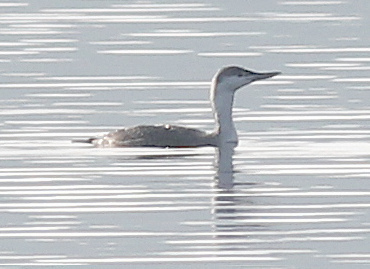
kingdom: Animalia
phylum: Chordata
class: Aves
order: Gaviiformes
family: Gaviidae
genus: Gavia
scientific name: Gavia stellata
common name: Red-throated loon
